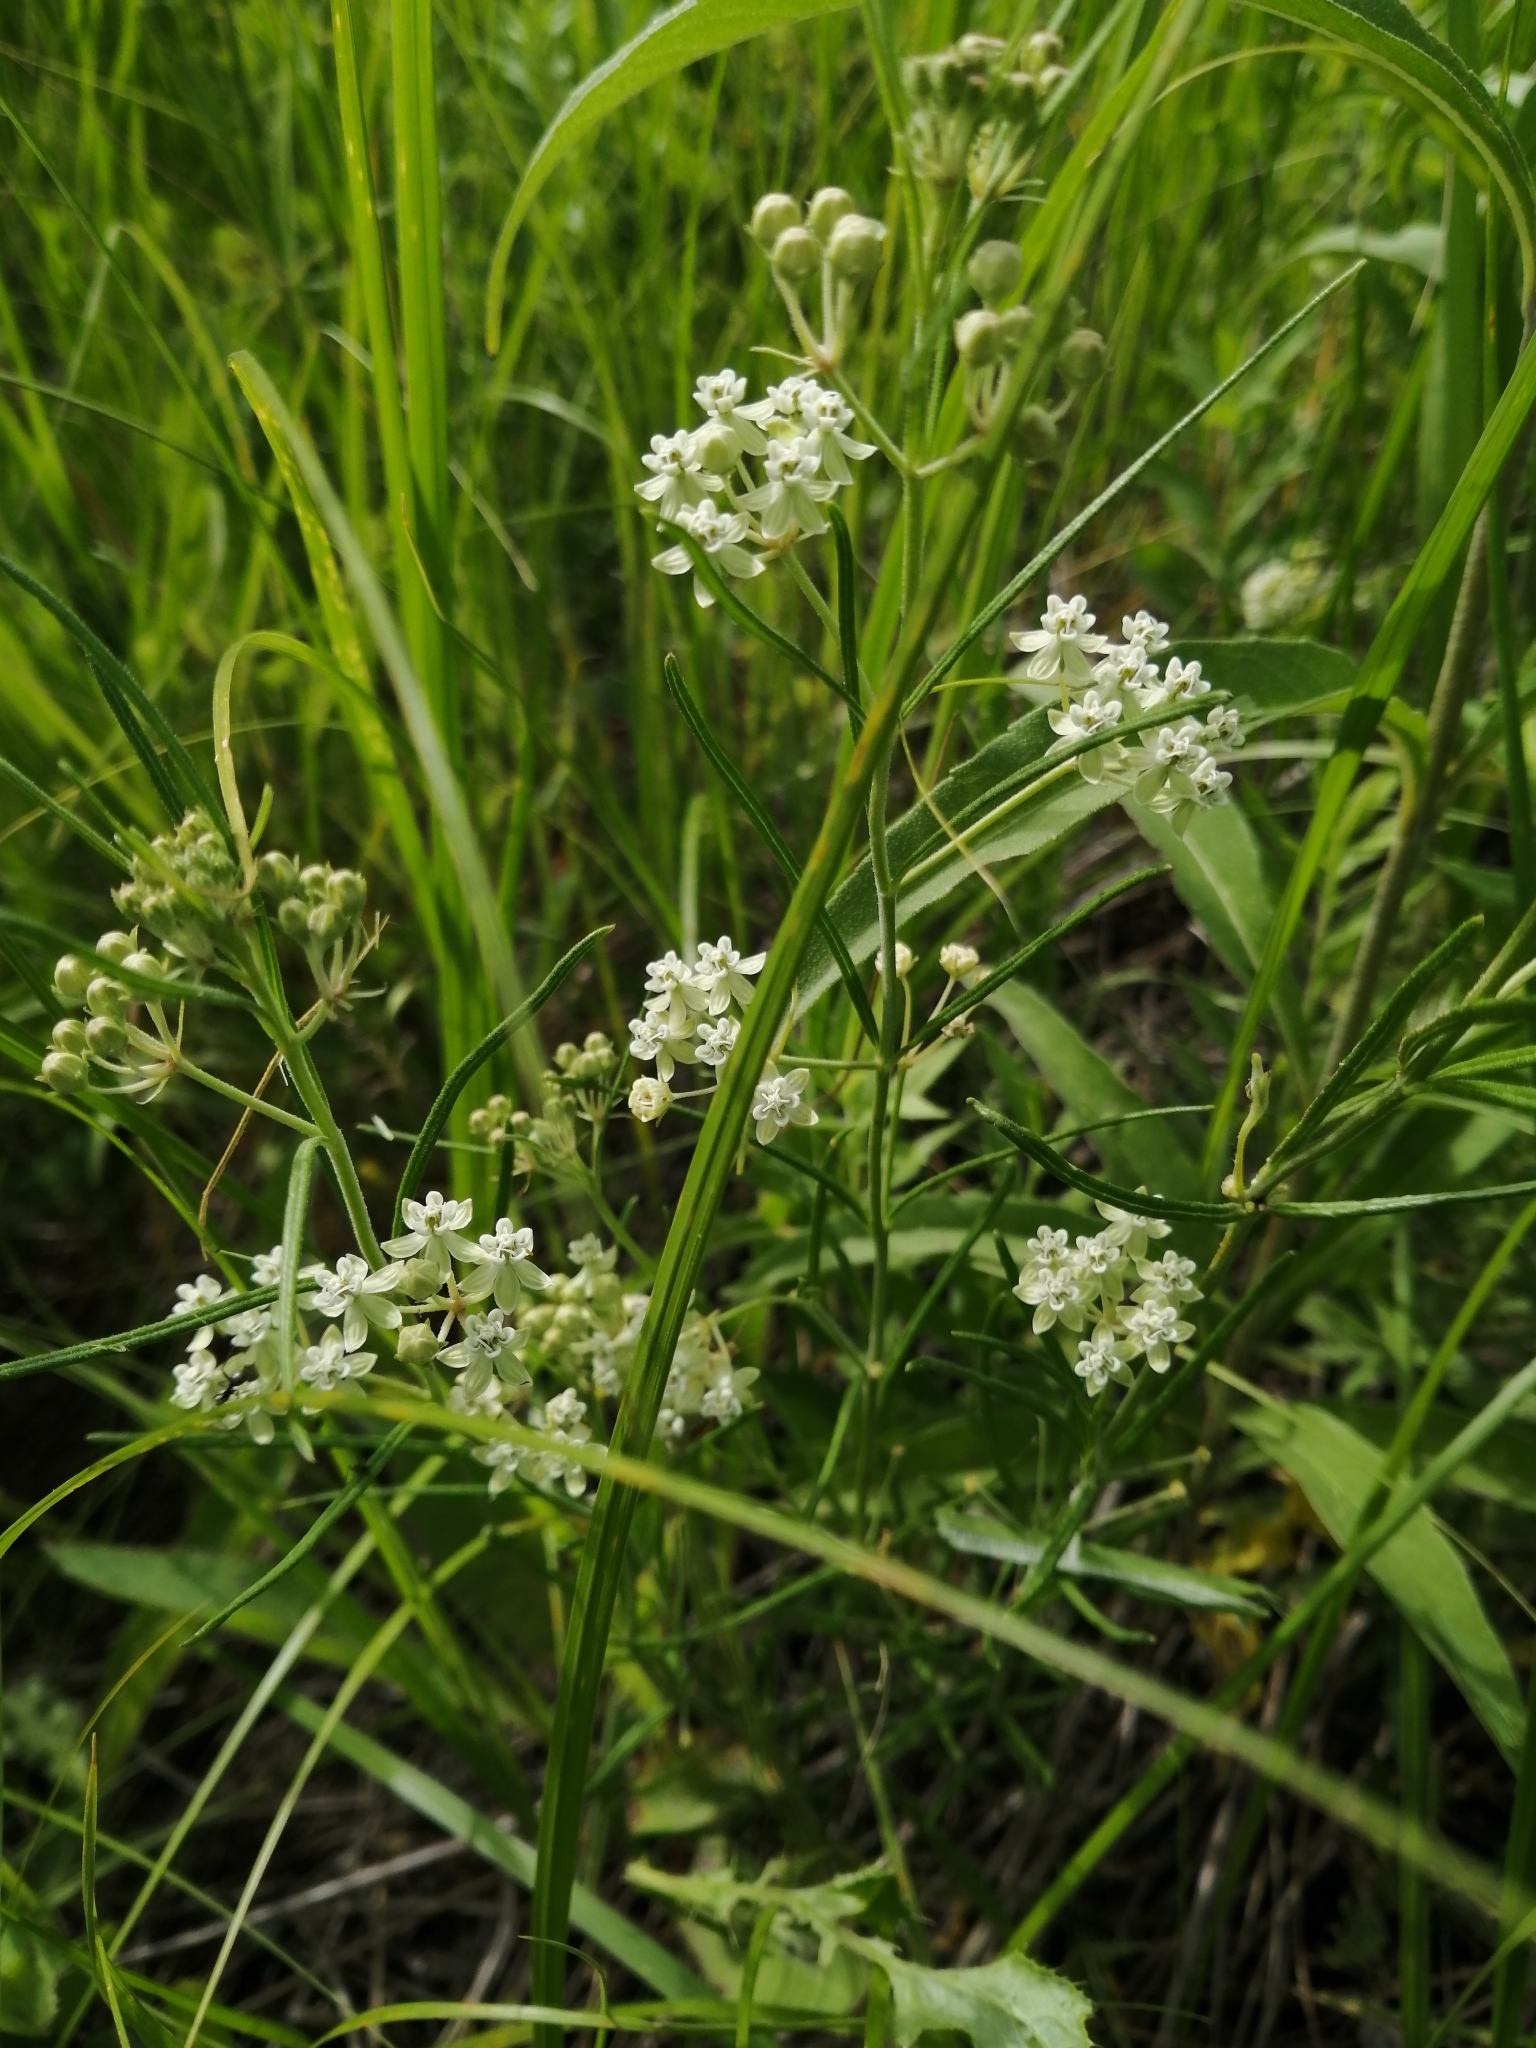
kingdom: Plantae
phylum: Tracheophyta
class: Magnoliopsida
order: Gentianales
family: Apocynaceae
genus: Asclepias
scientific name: Asclepias verticillata
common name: Eastern whorled milkweed
